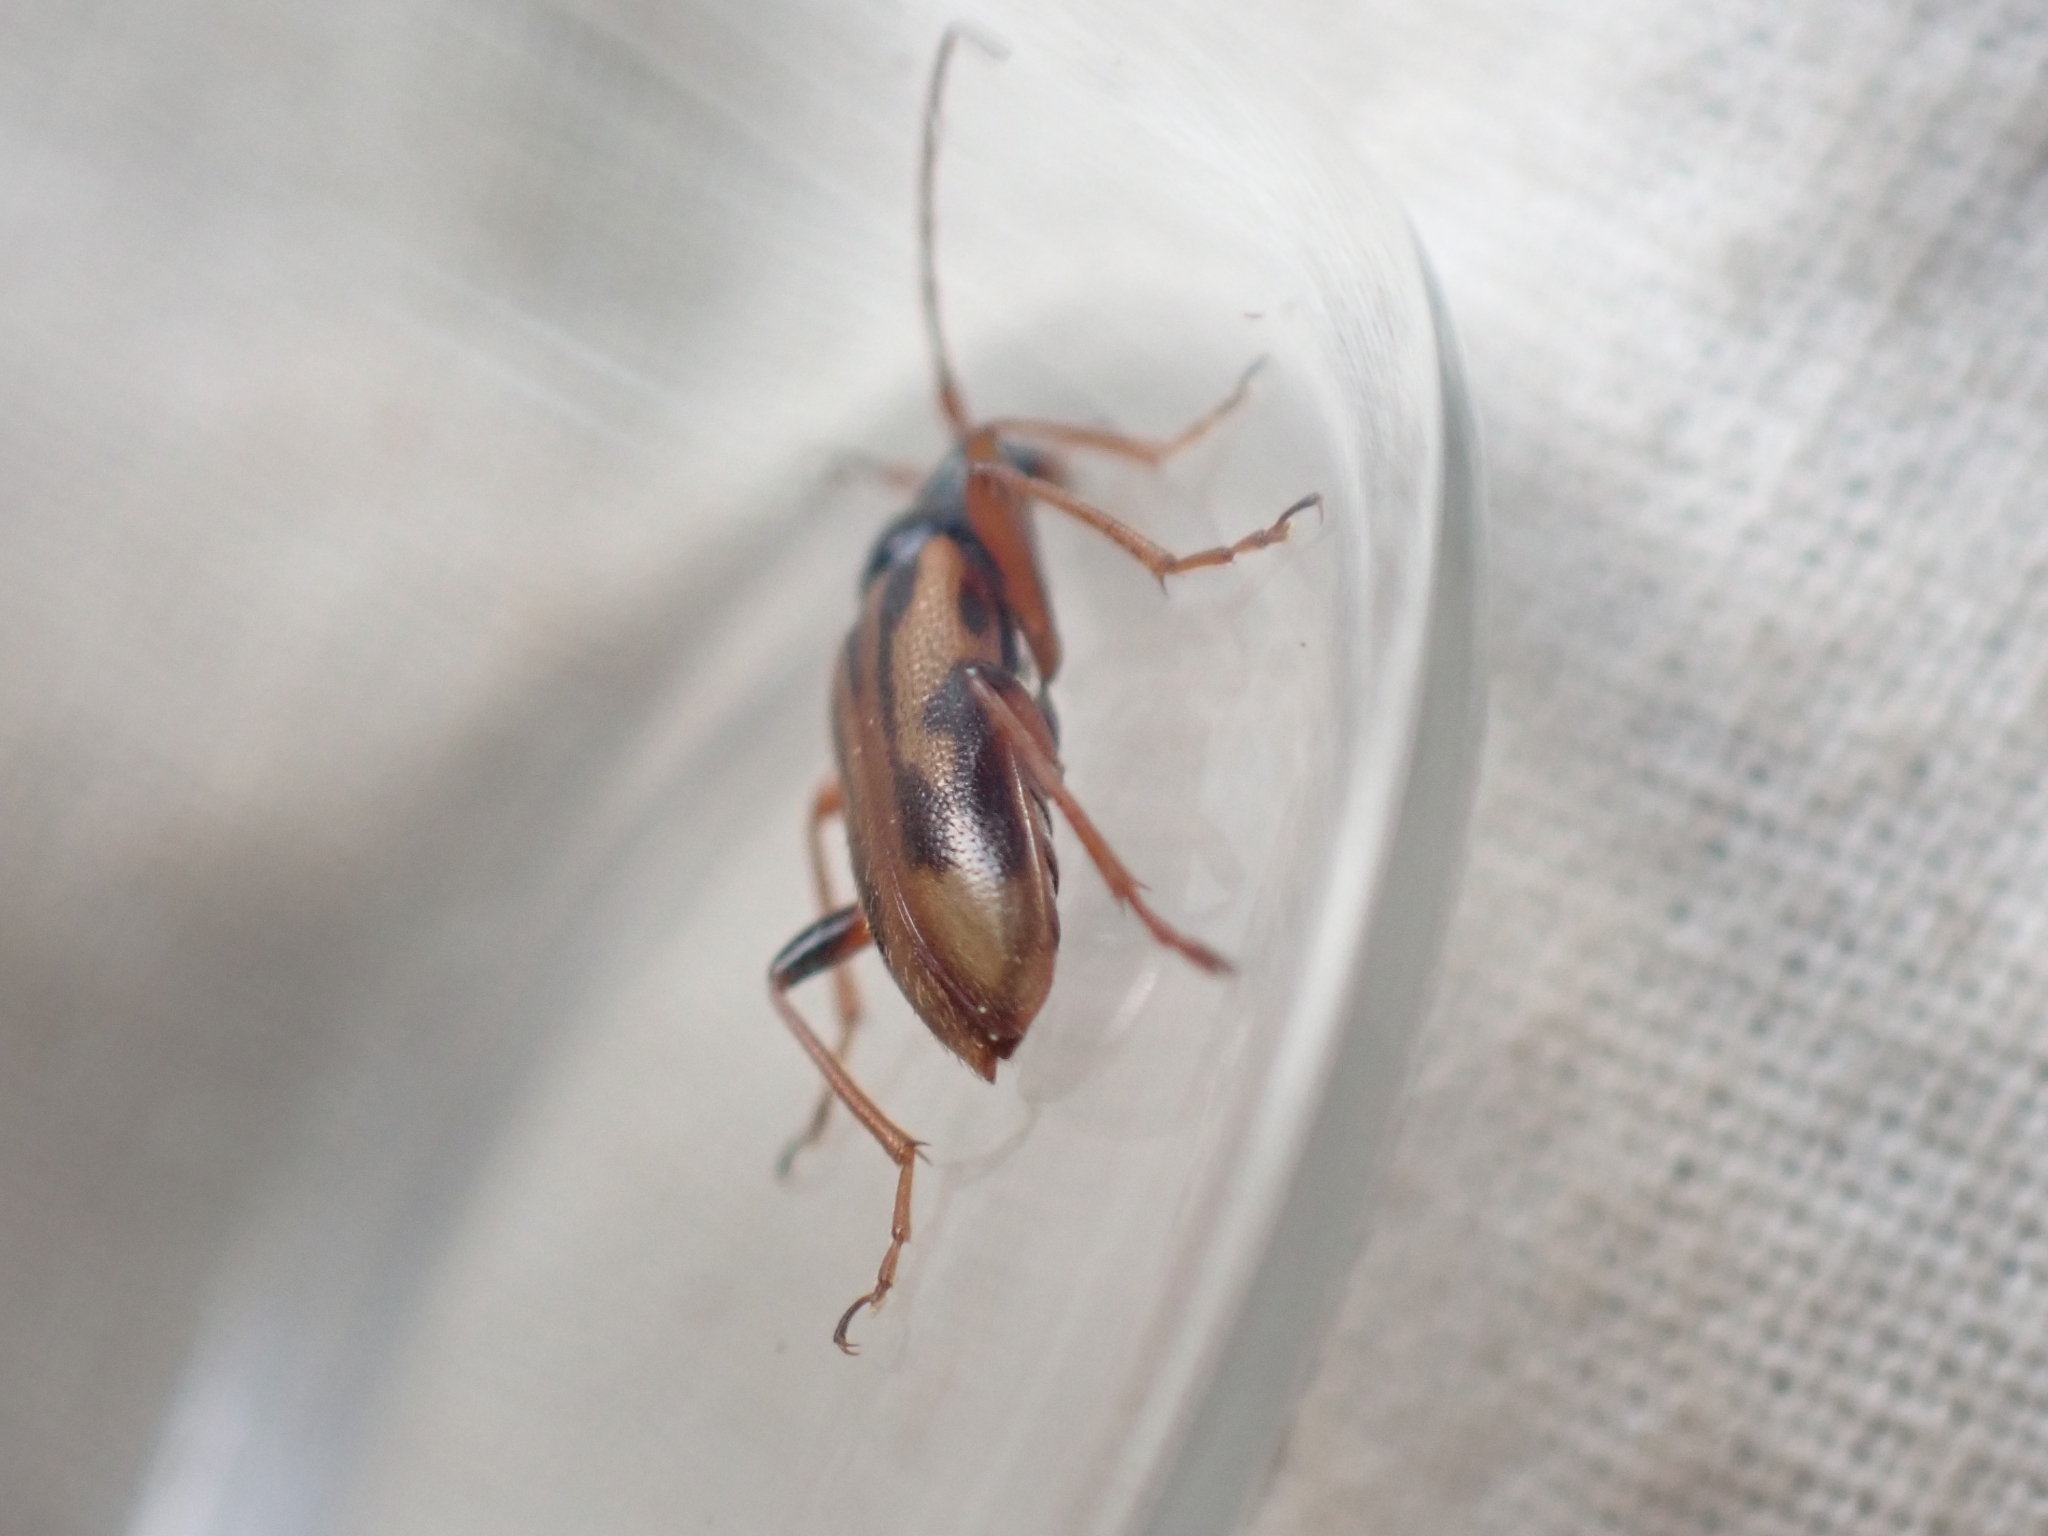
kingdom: Animalia
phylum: Arthropoda
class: Insecta
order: Coleoptera
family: Cerambycidae
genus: Pidonia
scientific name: Pidonia scripta
